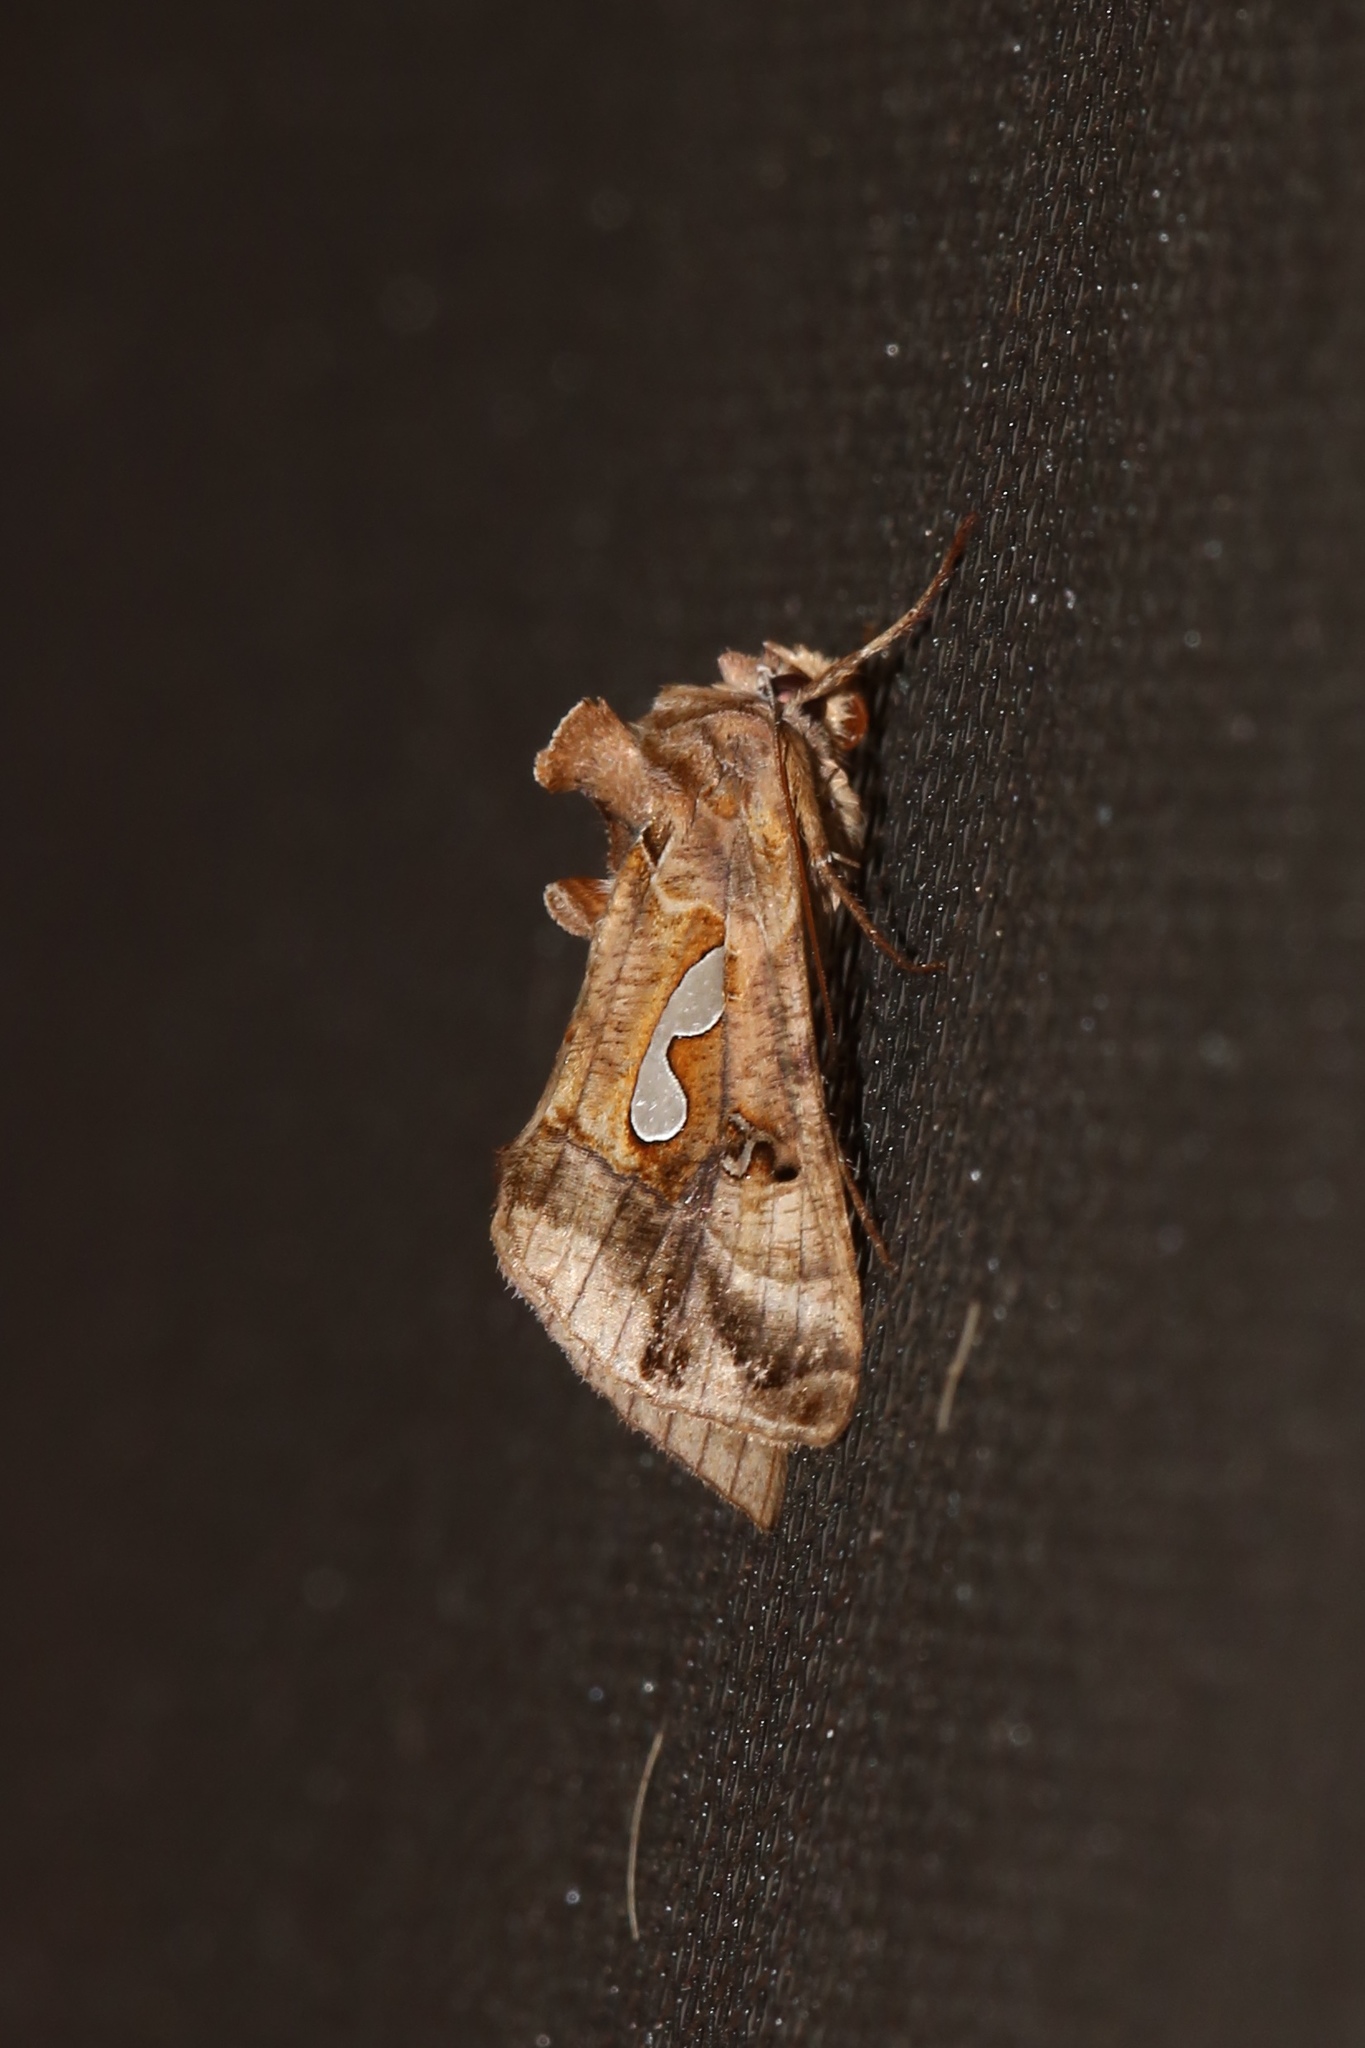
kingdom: Animalia
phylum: Arthropoda
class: Insecta
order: Lepidoptera
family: Noctuidae
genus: Megalographa
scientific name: Megalographa biloba
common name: Cutworm
